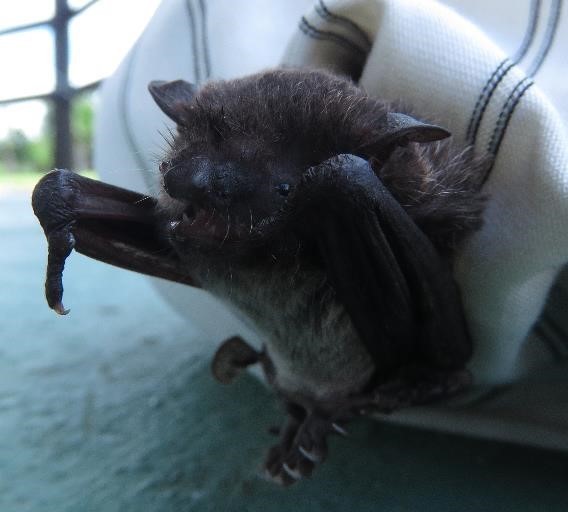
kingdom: Animalia
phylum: Chordata
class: Mammalia
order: Chiroptera
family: Vespertilionidae
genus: Myotis
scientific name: Myotis albescens
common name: Silver-tipped myotis
